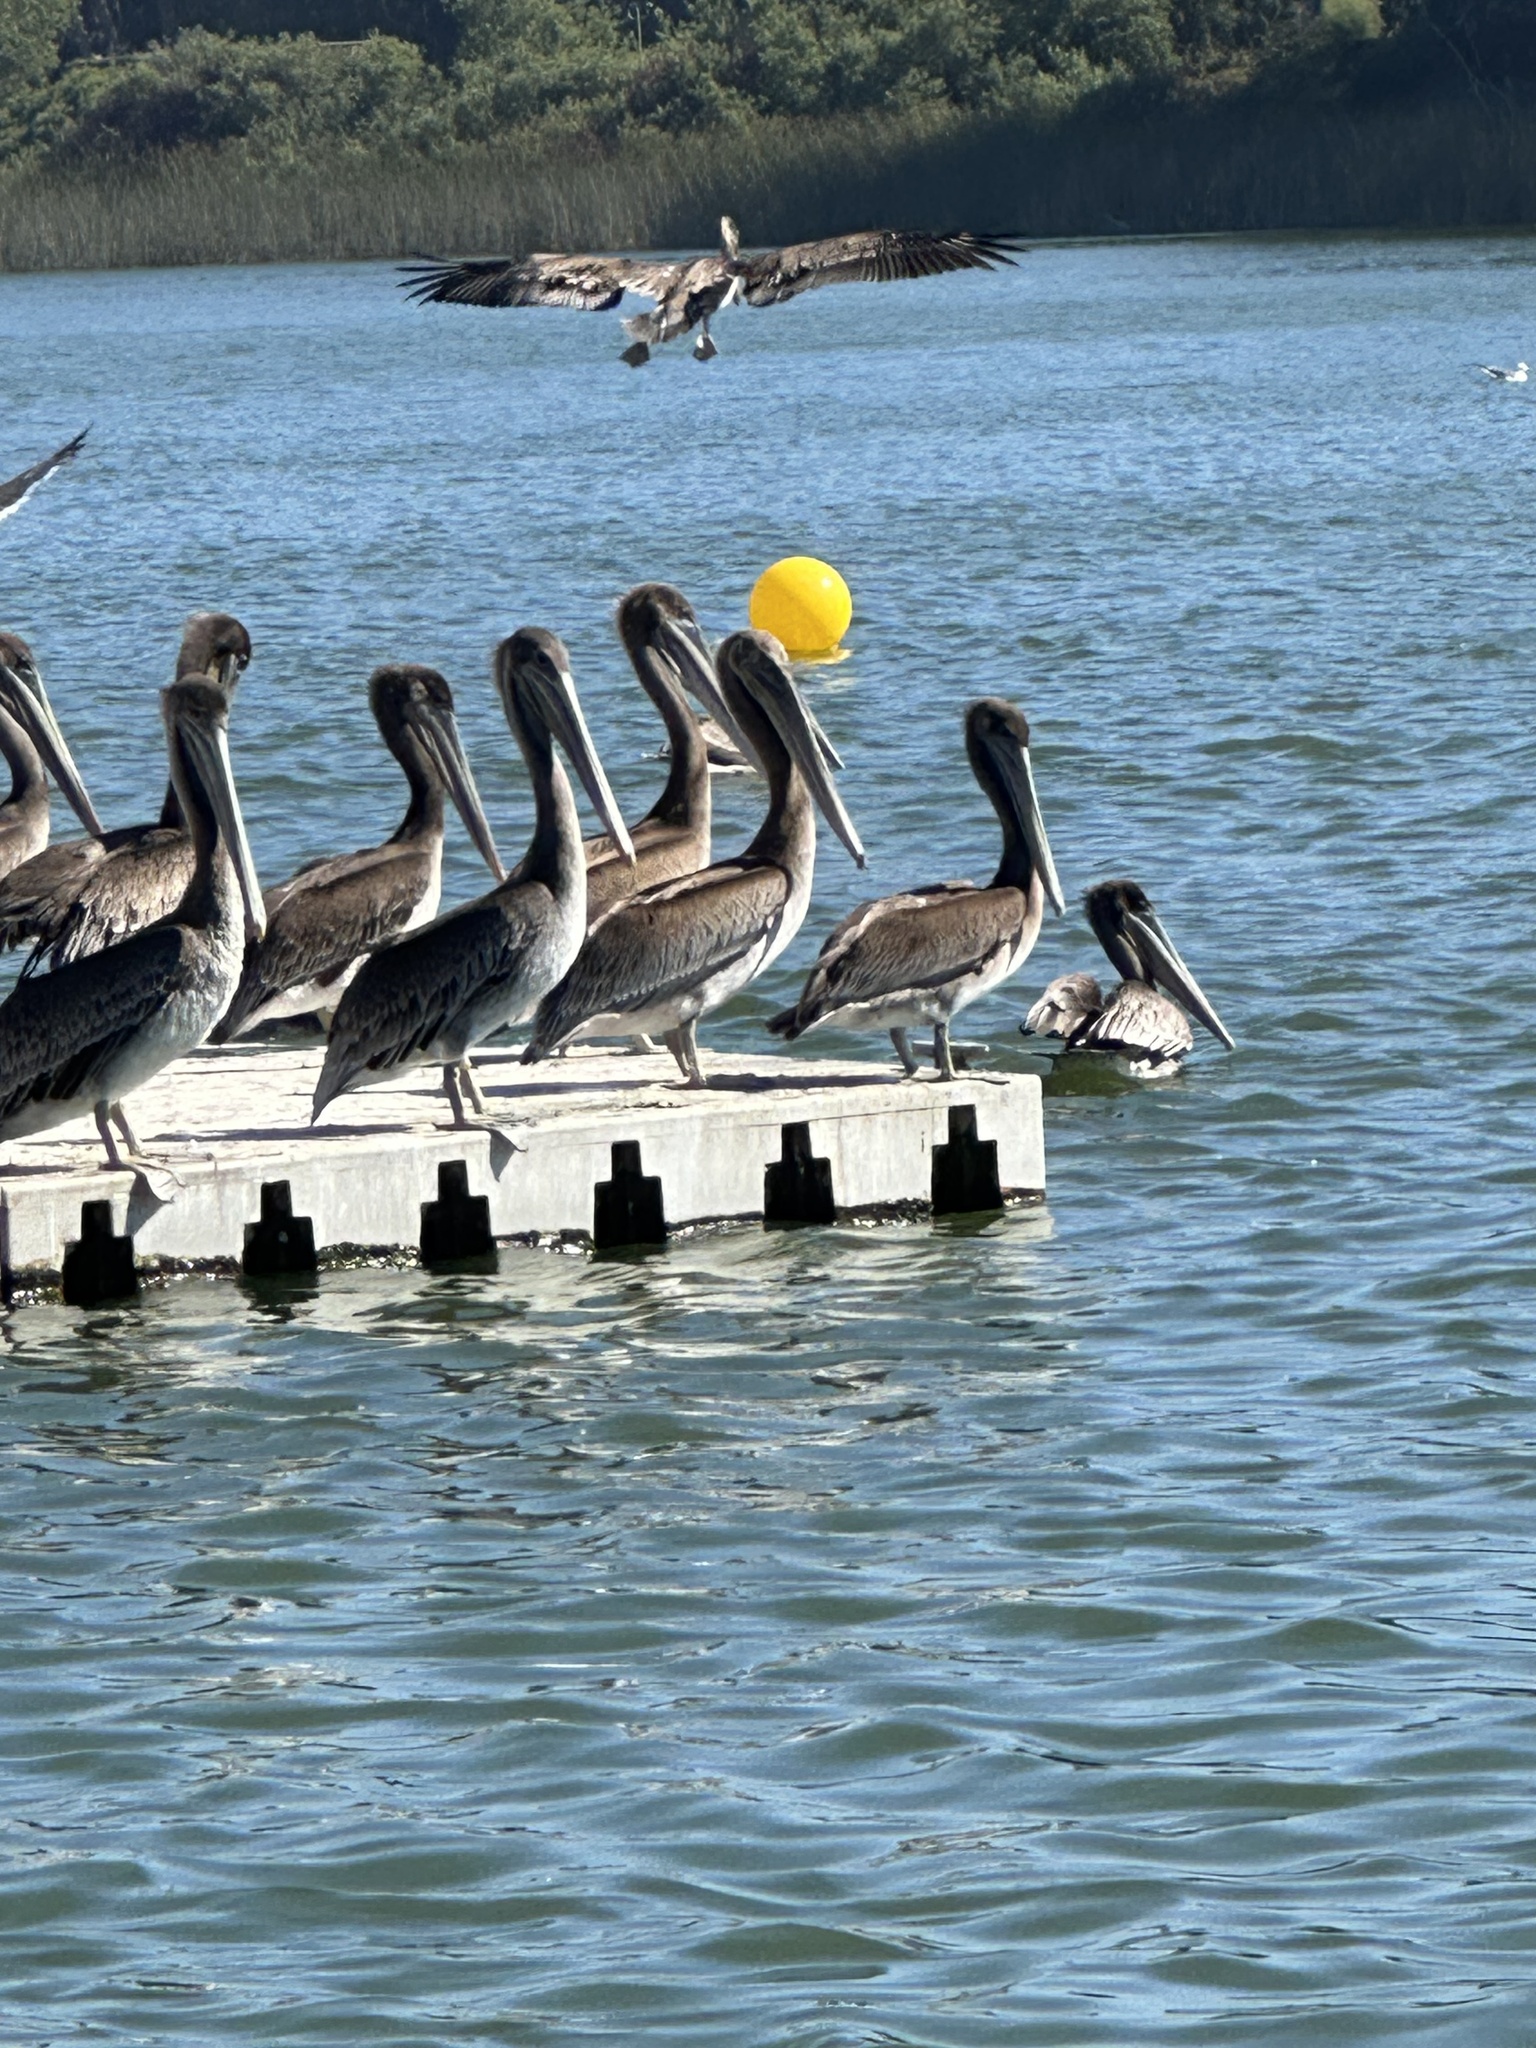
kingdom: Animalia
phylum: Chordata
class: Aves
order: Pelecaniformes
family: Pelecanidae
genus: Pelecanus
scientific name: Pelecanus occidentalis
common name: Brown pelican
